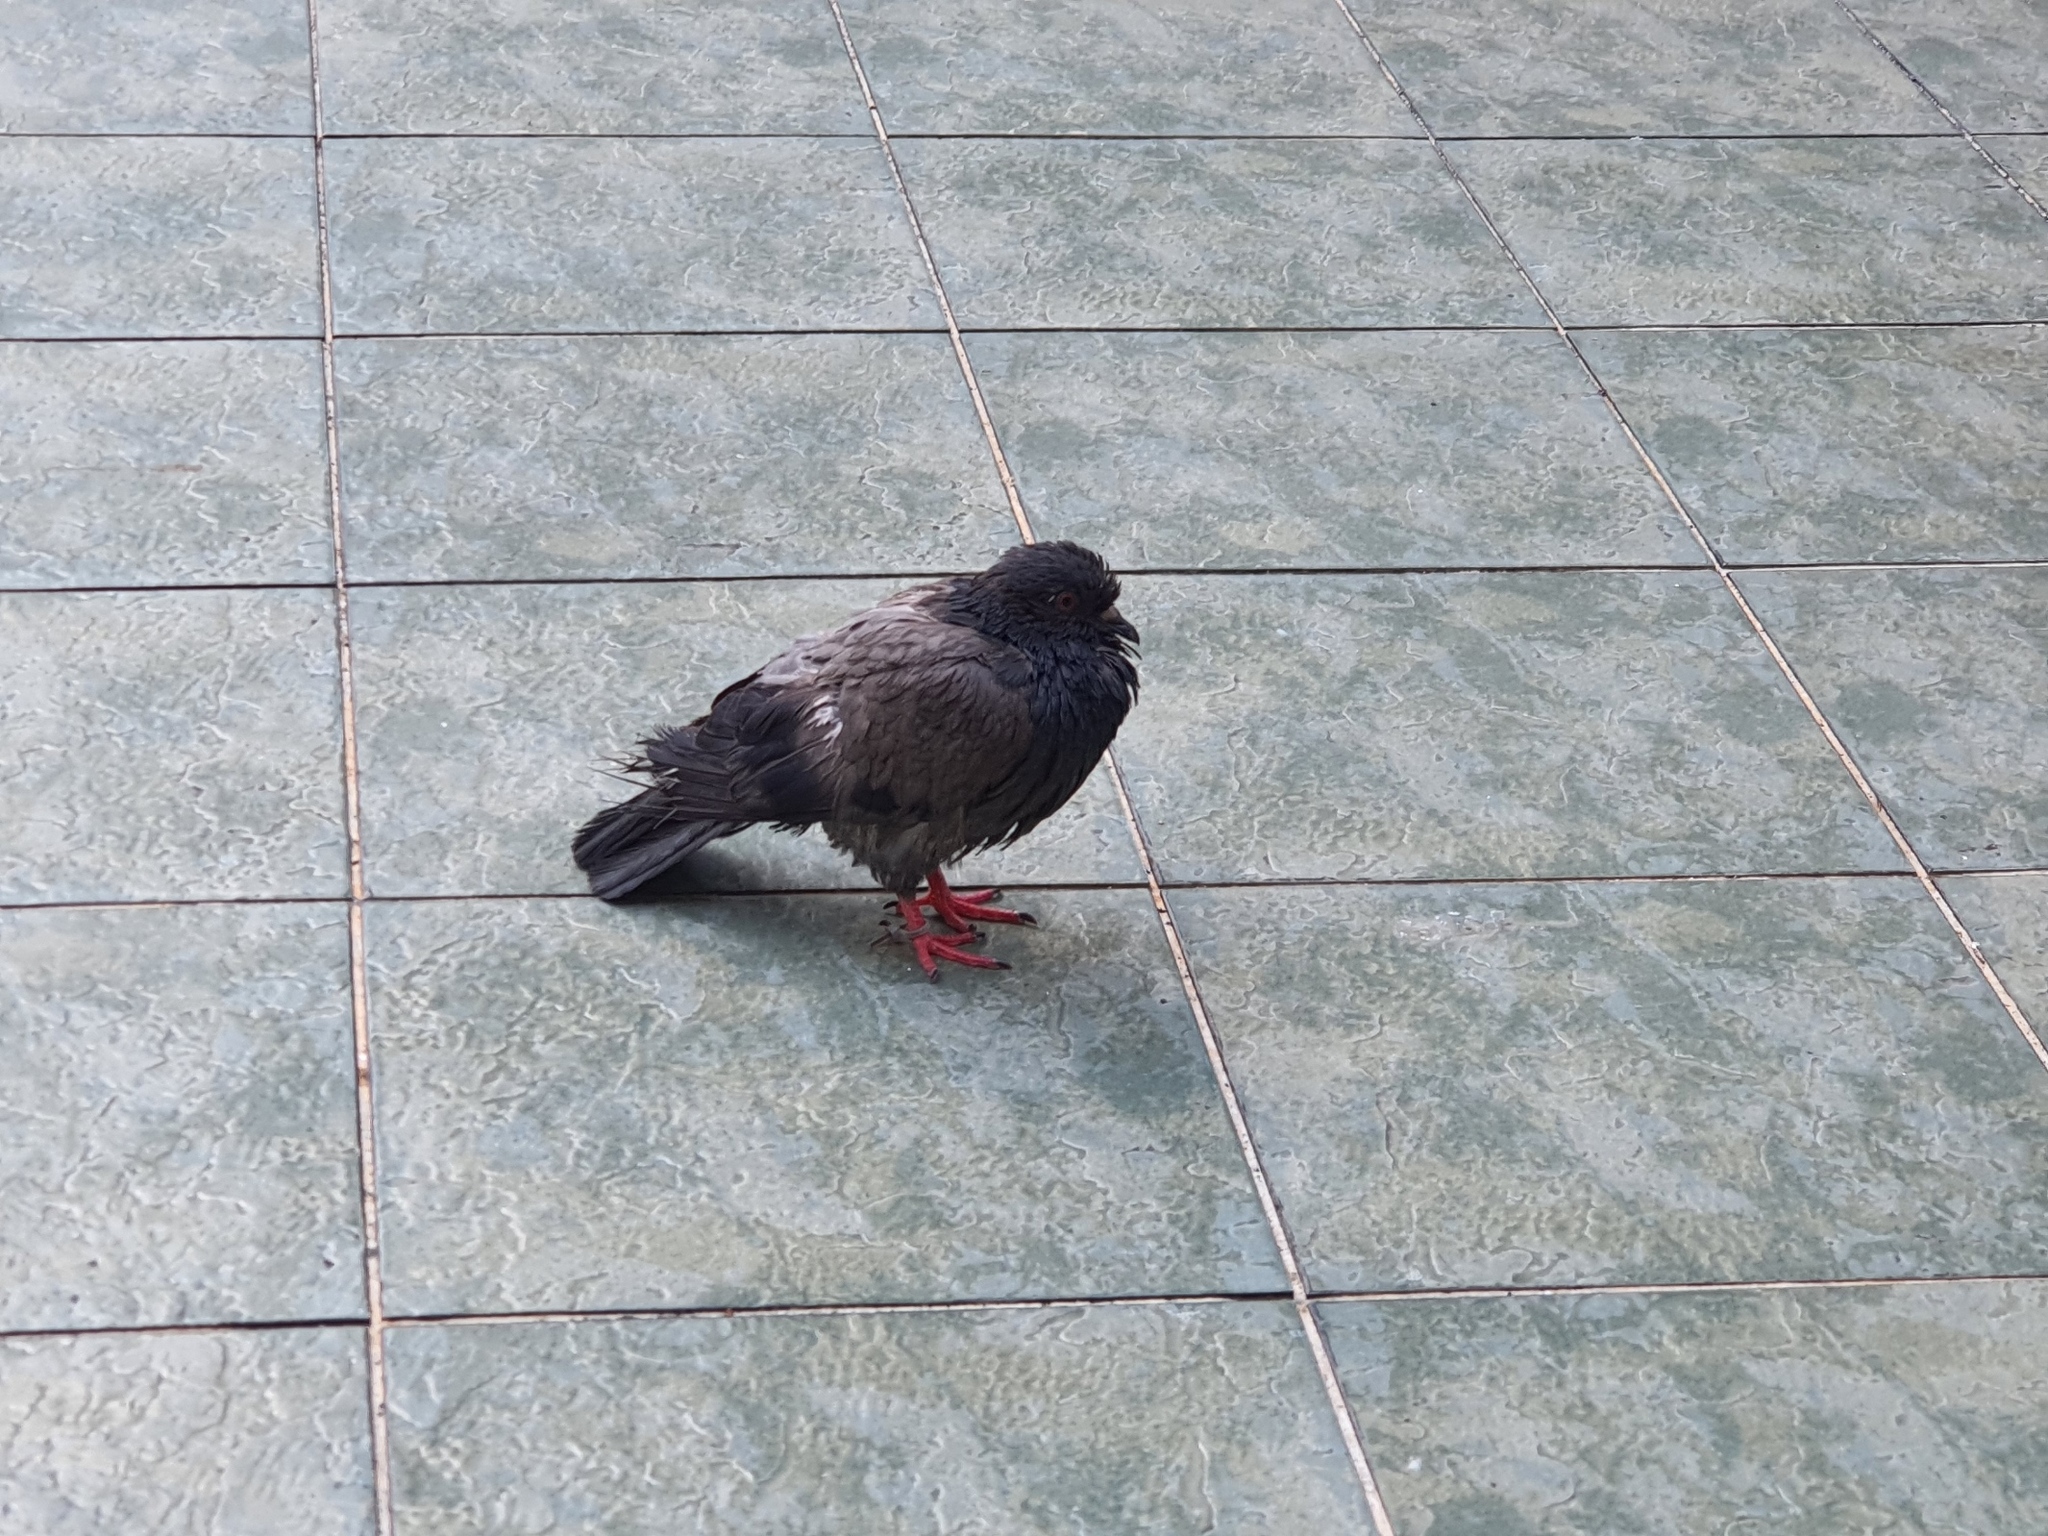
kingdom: Animalia
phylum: Chordata
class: Aves
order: Columbiformes
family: Columbidae
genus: Columba
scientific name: Columba livia
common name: Rock pigeon
